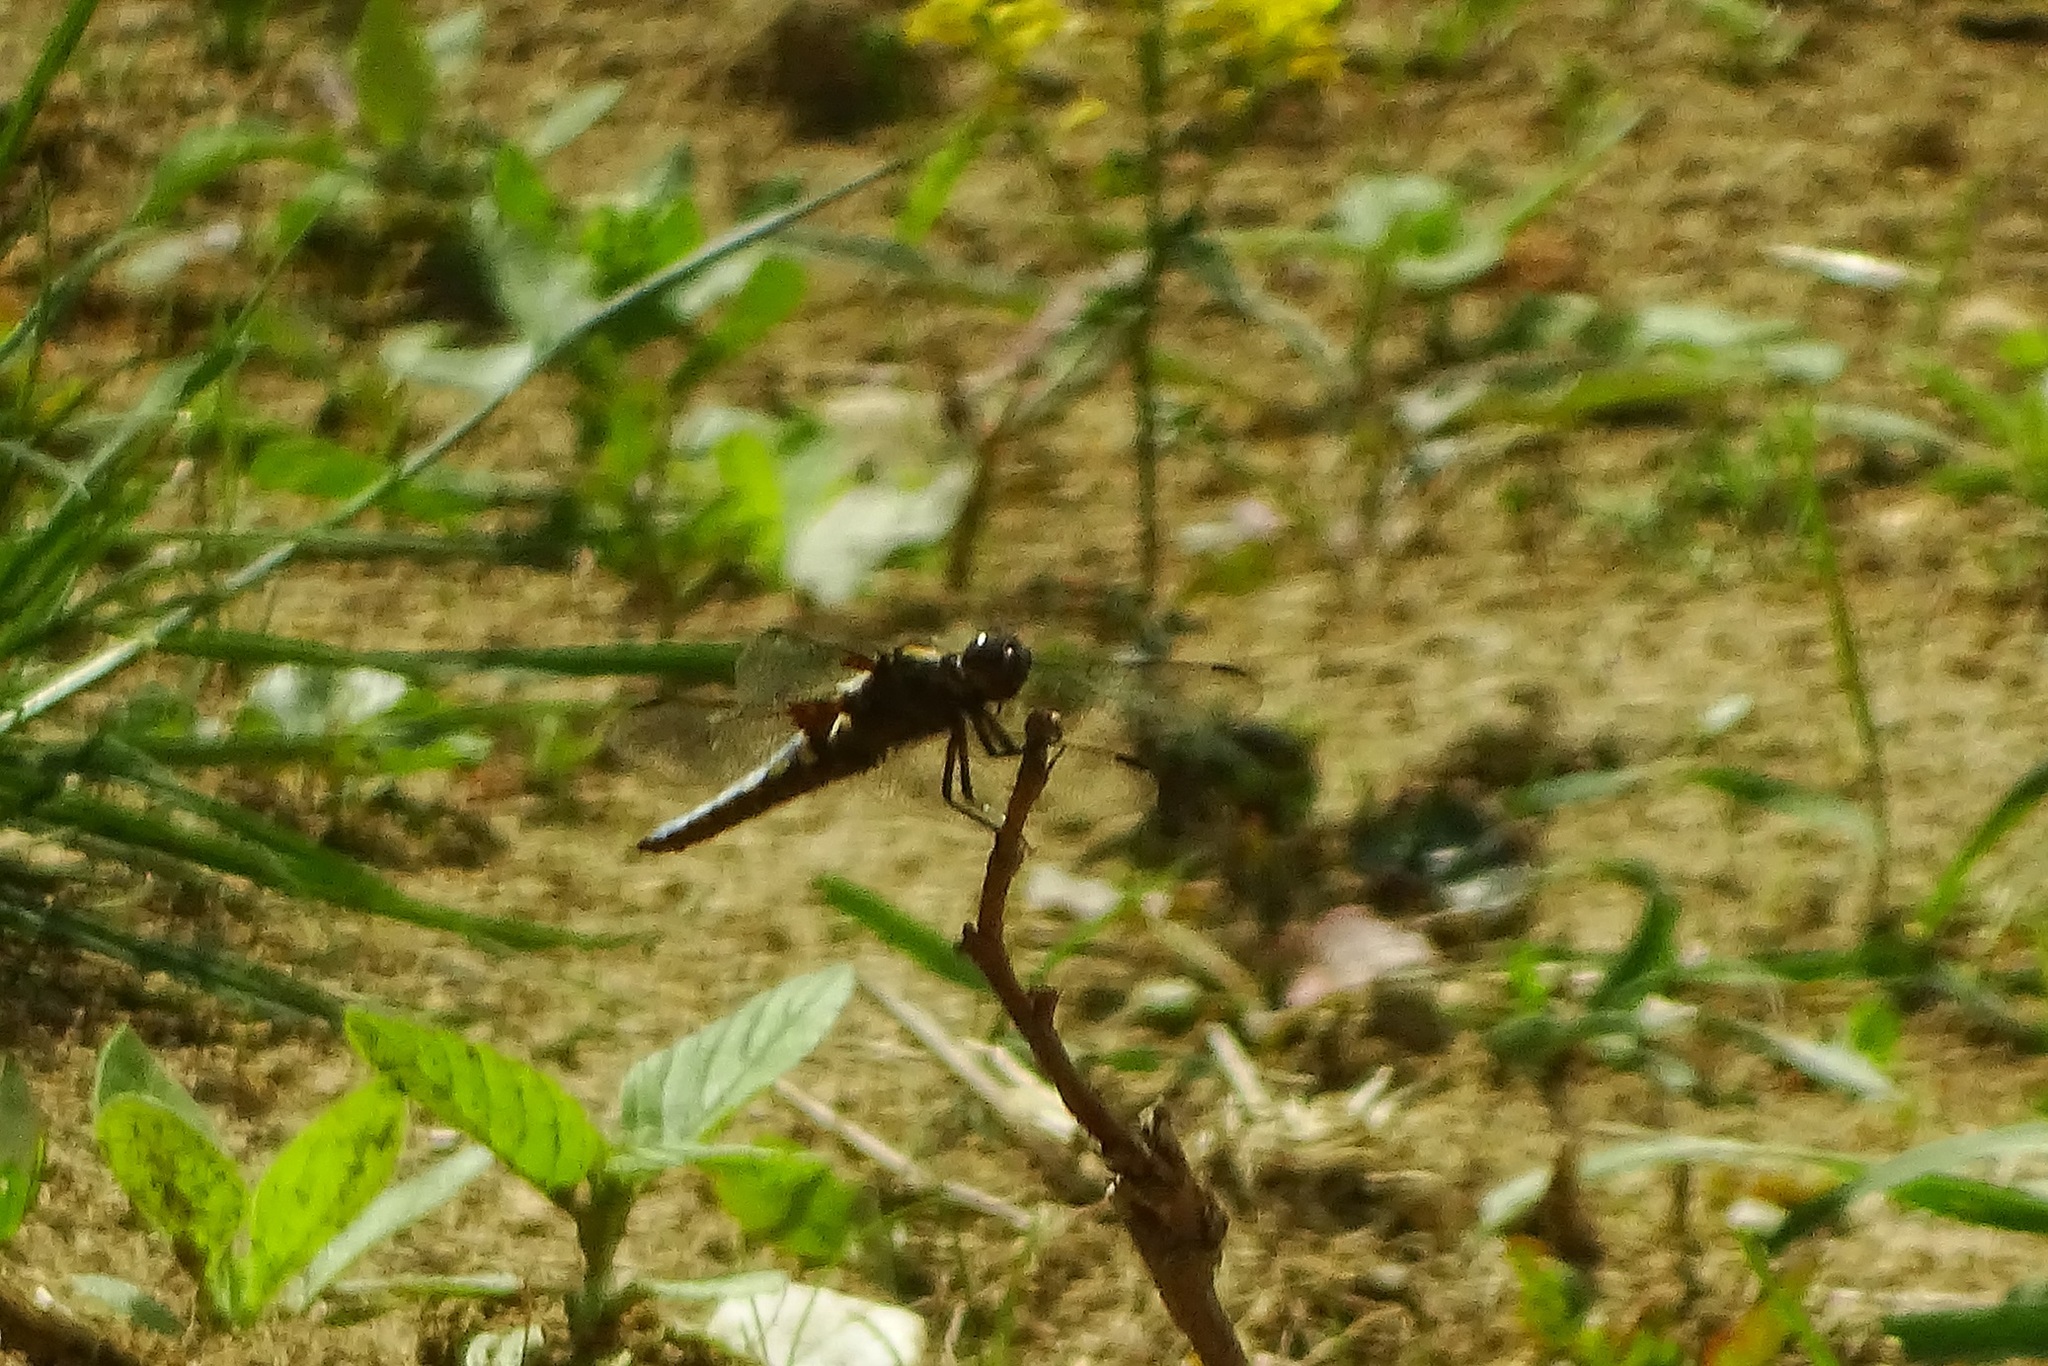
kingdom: Animalia
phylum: Arthropoda
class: Insecta
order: Odonata
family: Libellulidae
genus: Libellula
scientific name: Libellula depressa
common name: Broad-bodied chaser
